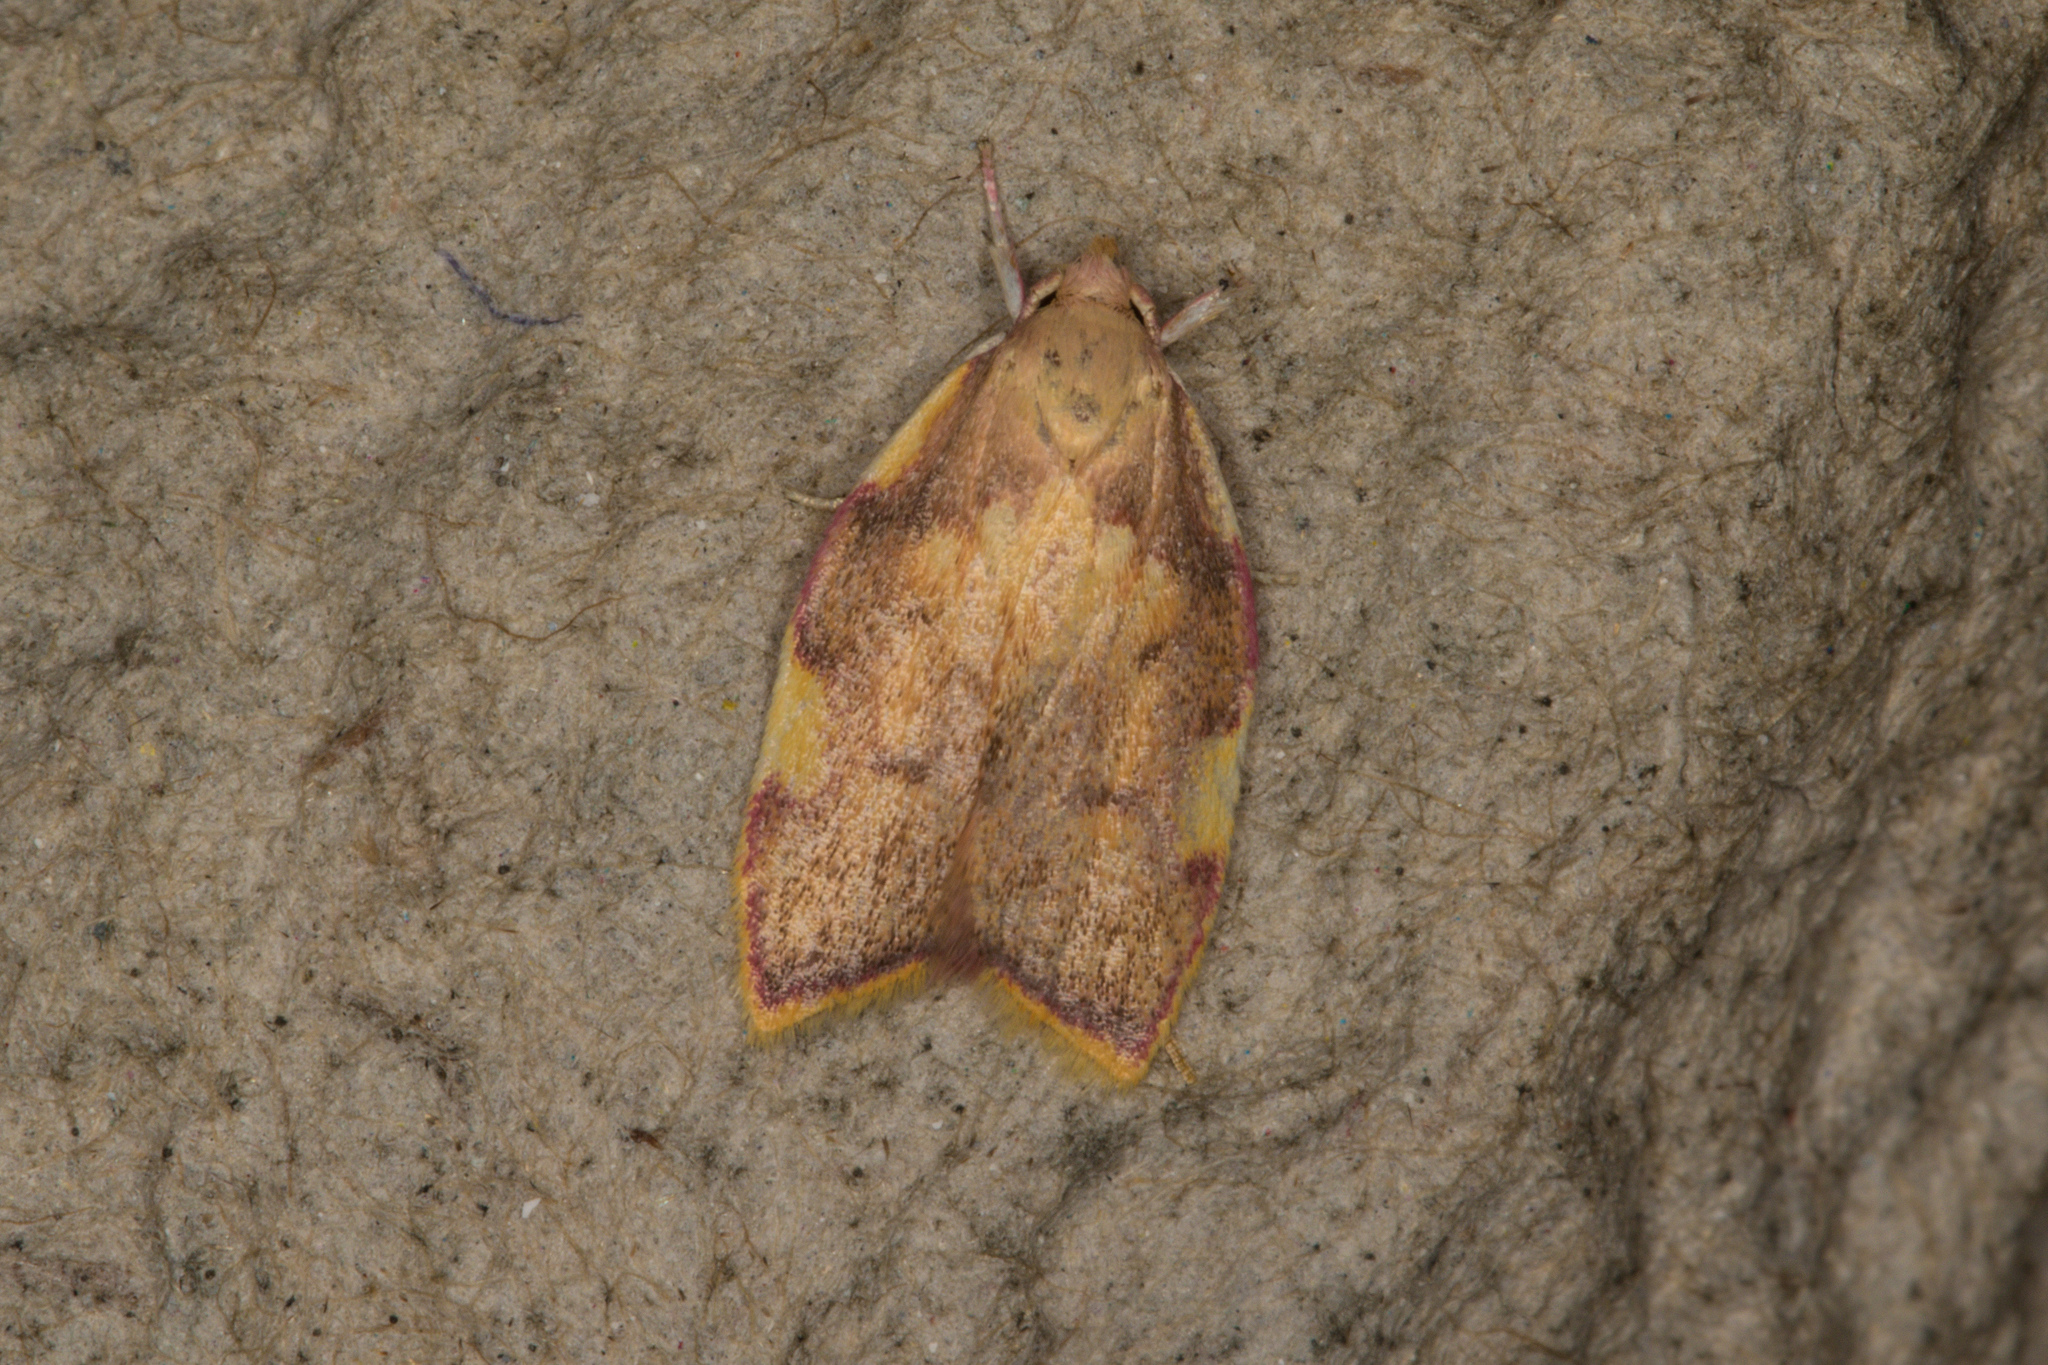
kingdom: Animalia
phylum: Arthropoda
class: Insecta
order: Lepidoptera
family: Peleopodidae
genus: Carcina
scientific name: Carcina quercana
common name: Moth
